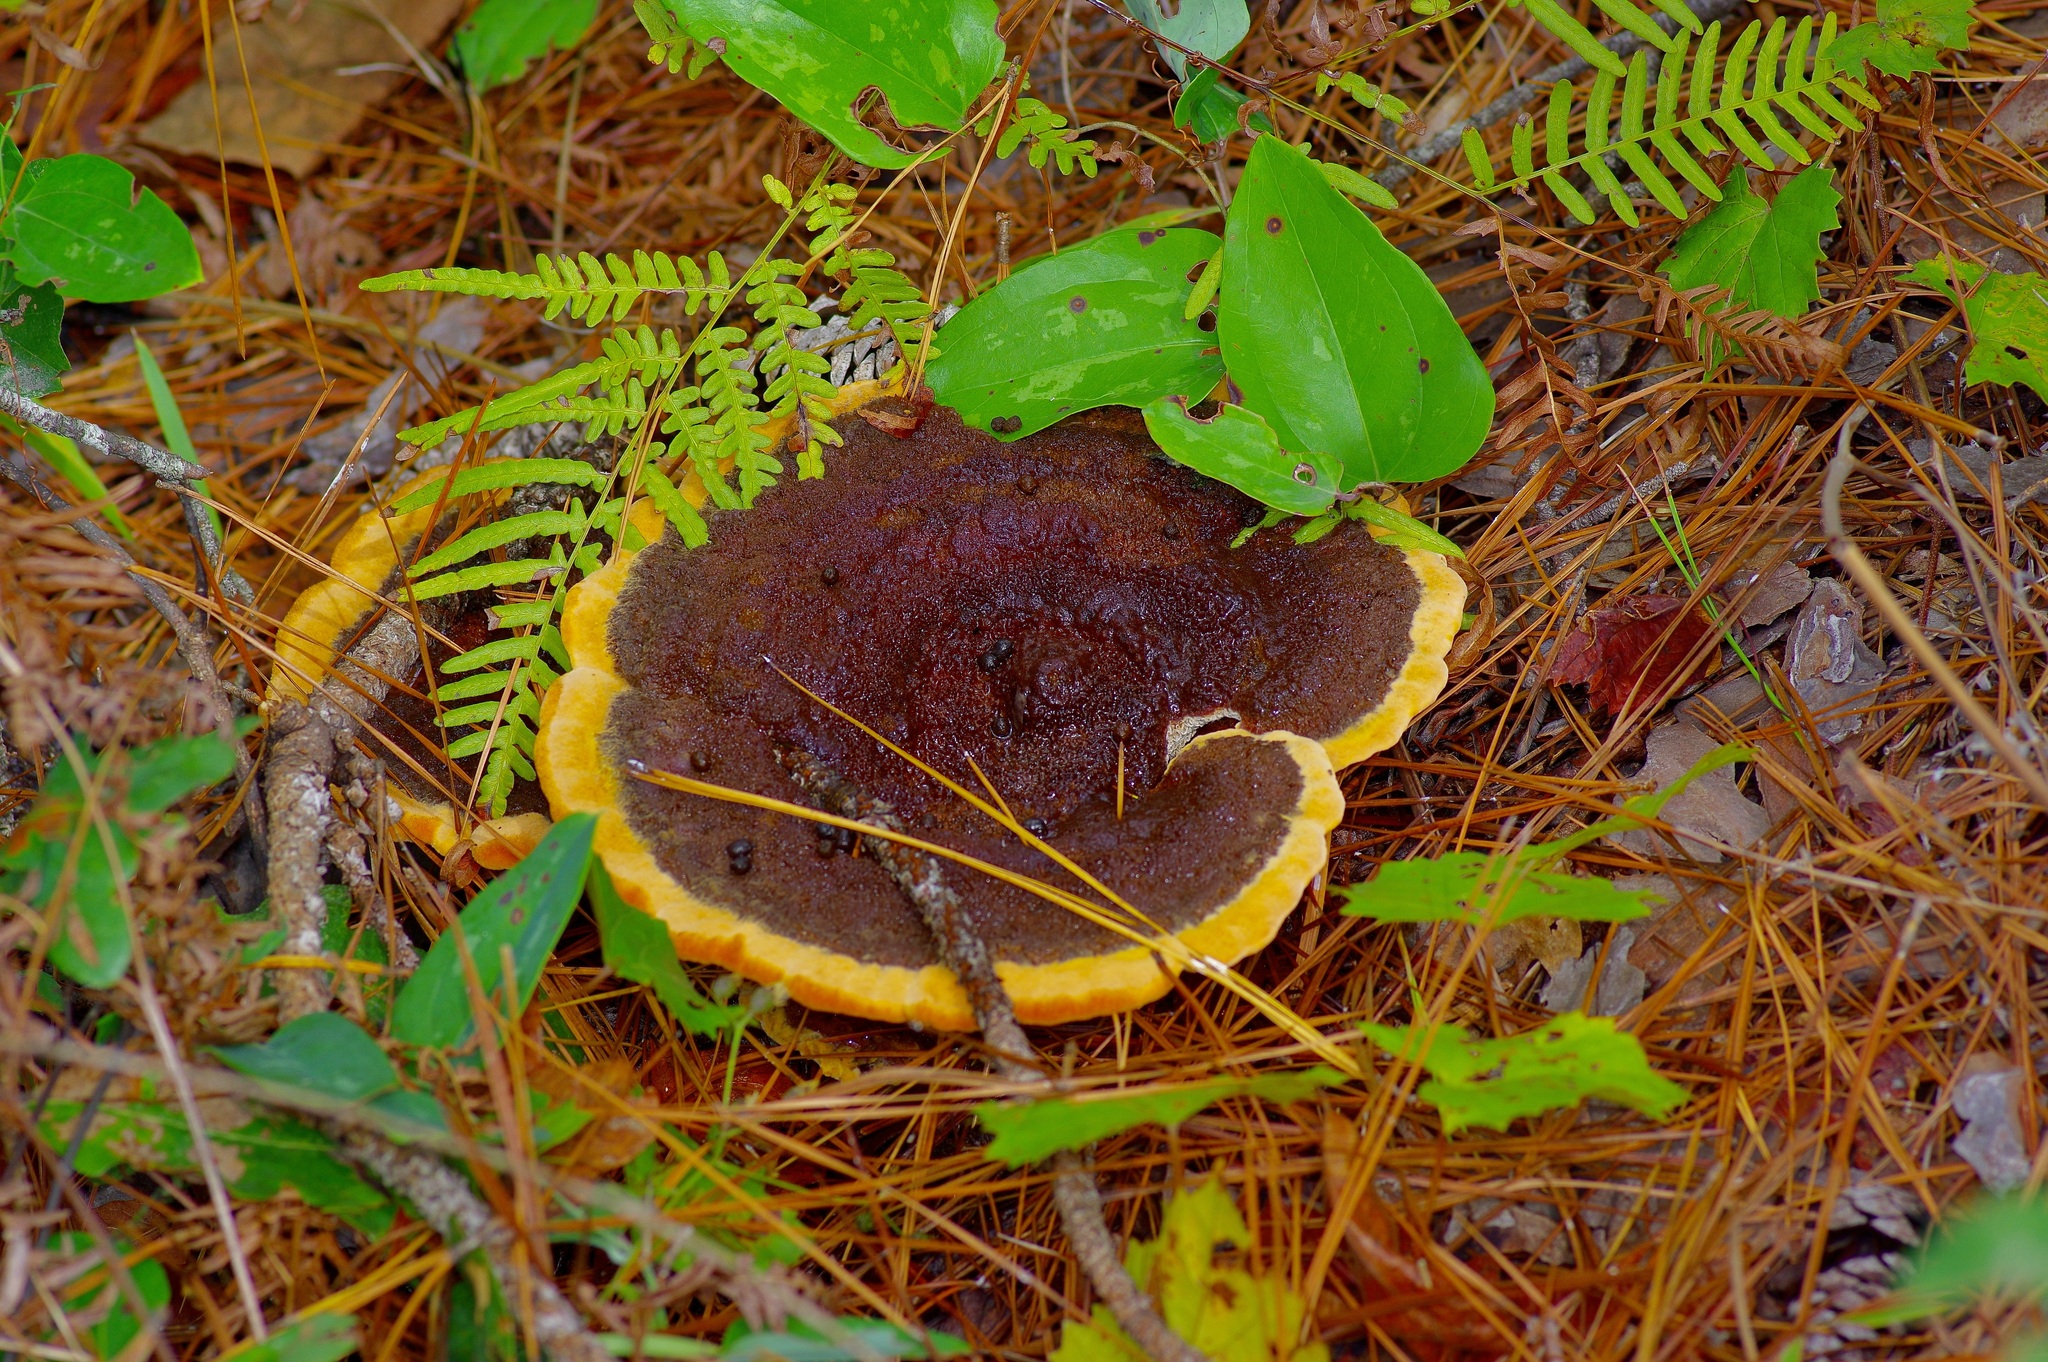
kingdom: Fungi
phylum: Basidiomycota
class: Agaricomycetes
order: Polyporales
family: Laetiporaceae
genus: Phaeolus
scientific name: Phaeolus schweinitzii
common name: Dyer's mazegill
